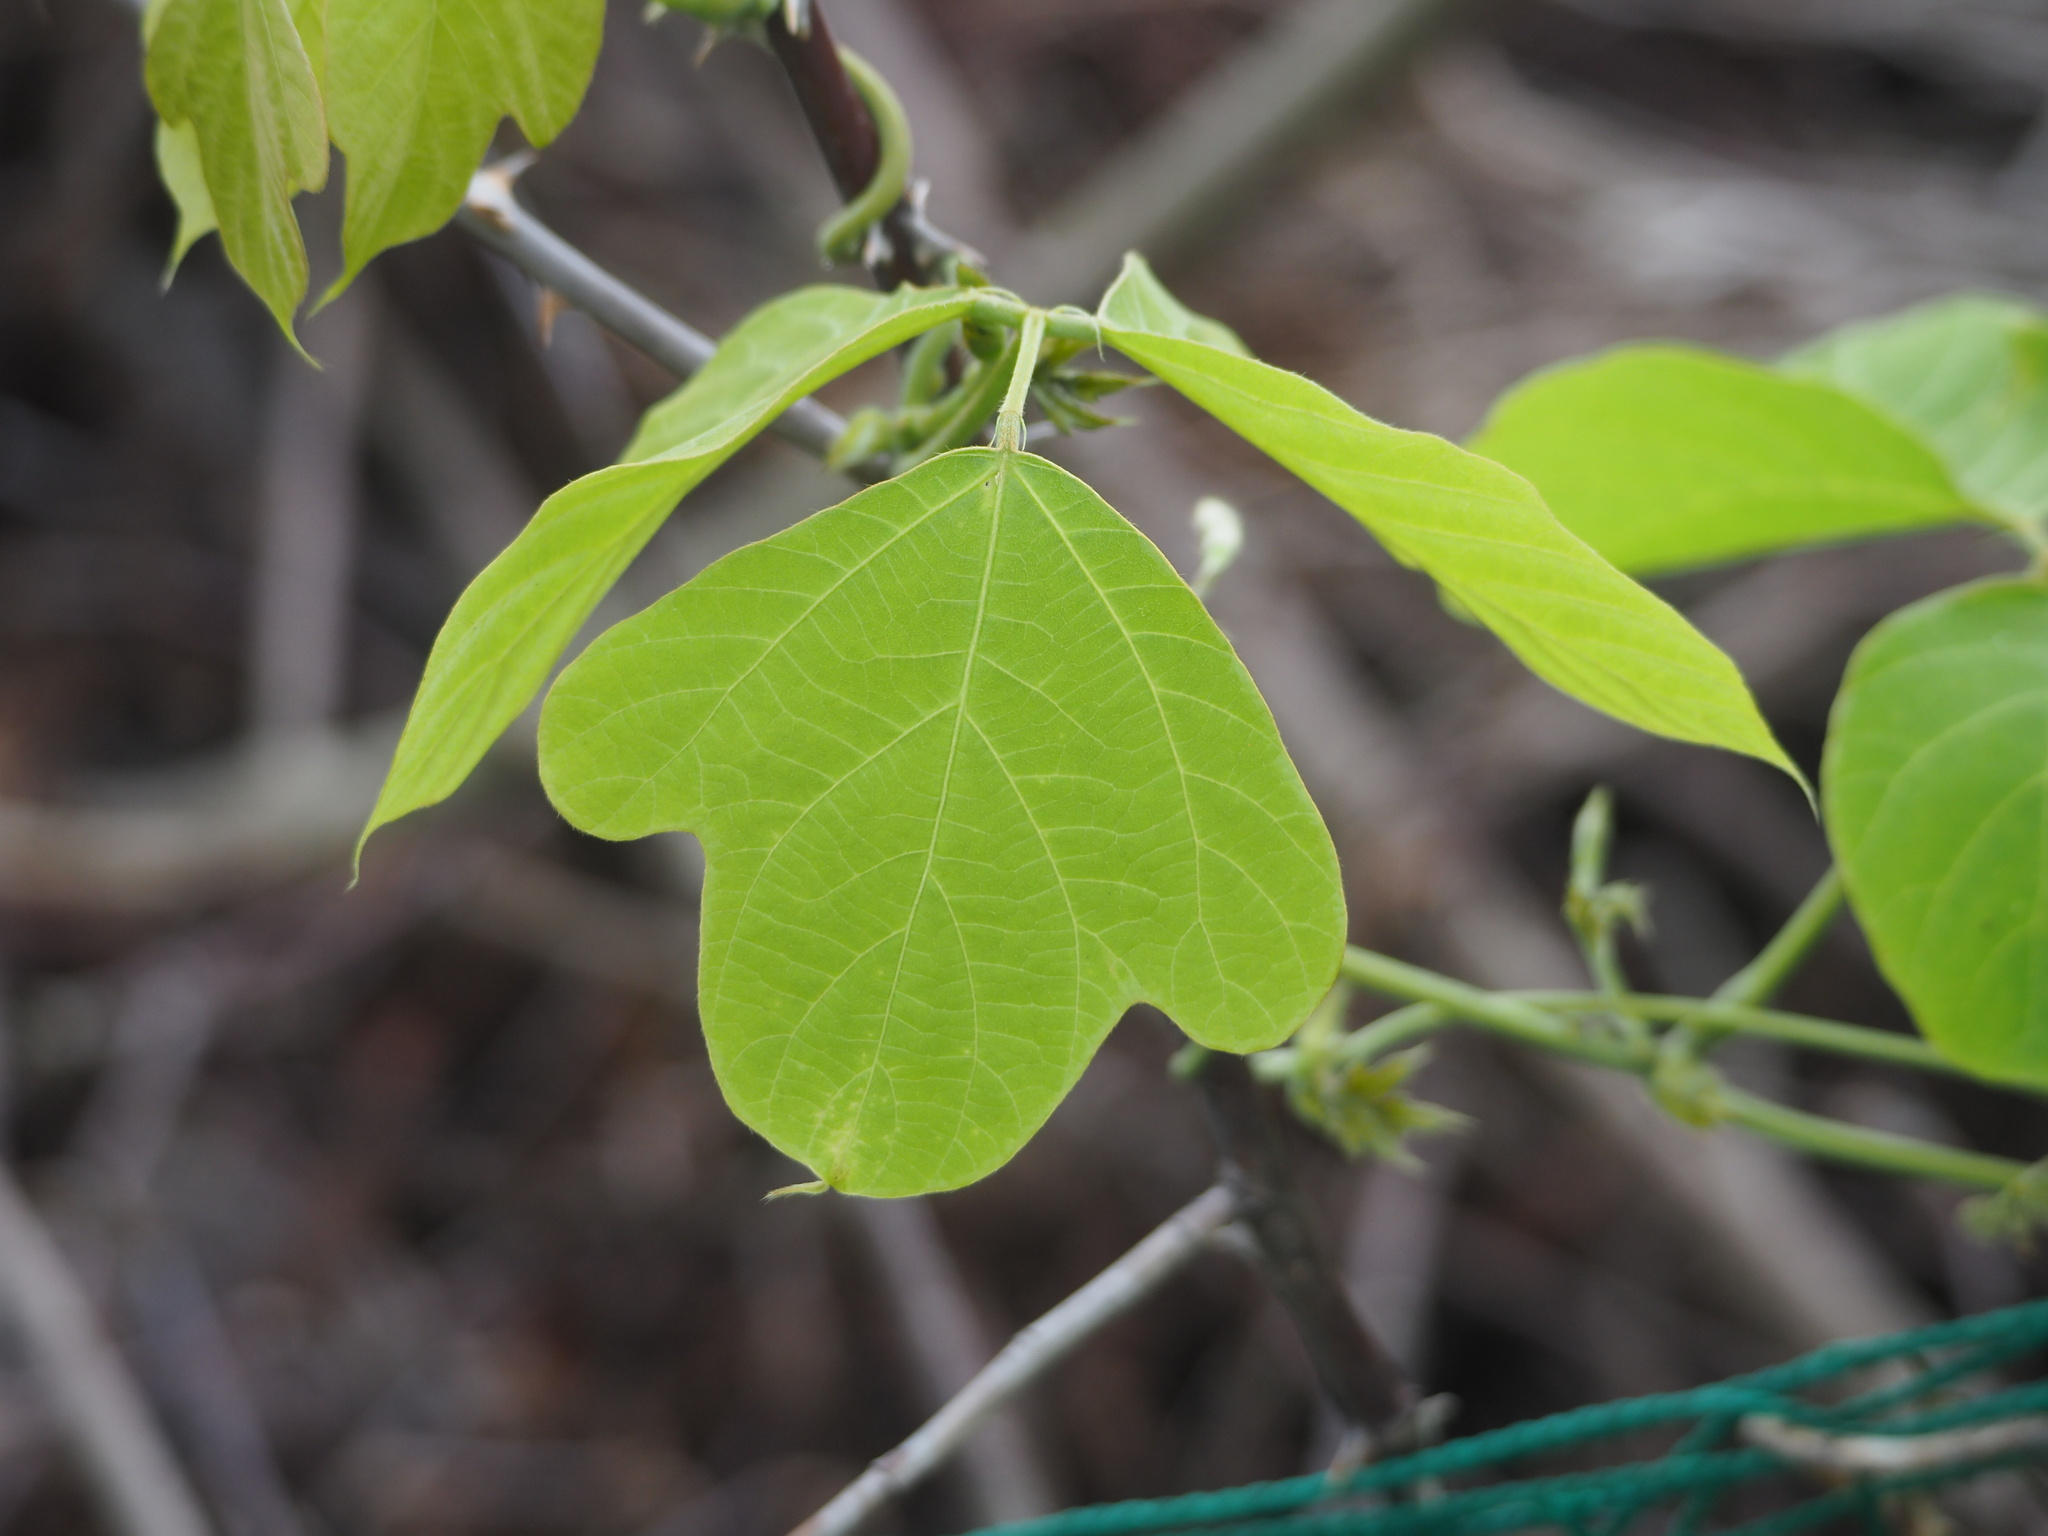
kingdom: Plantae
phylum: Tracheophyta
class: Magnoliopsida
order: Fabales
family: Fabaceae
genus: Pueraria
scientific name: Pueraria montana
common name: Kudzu
